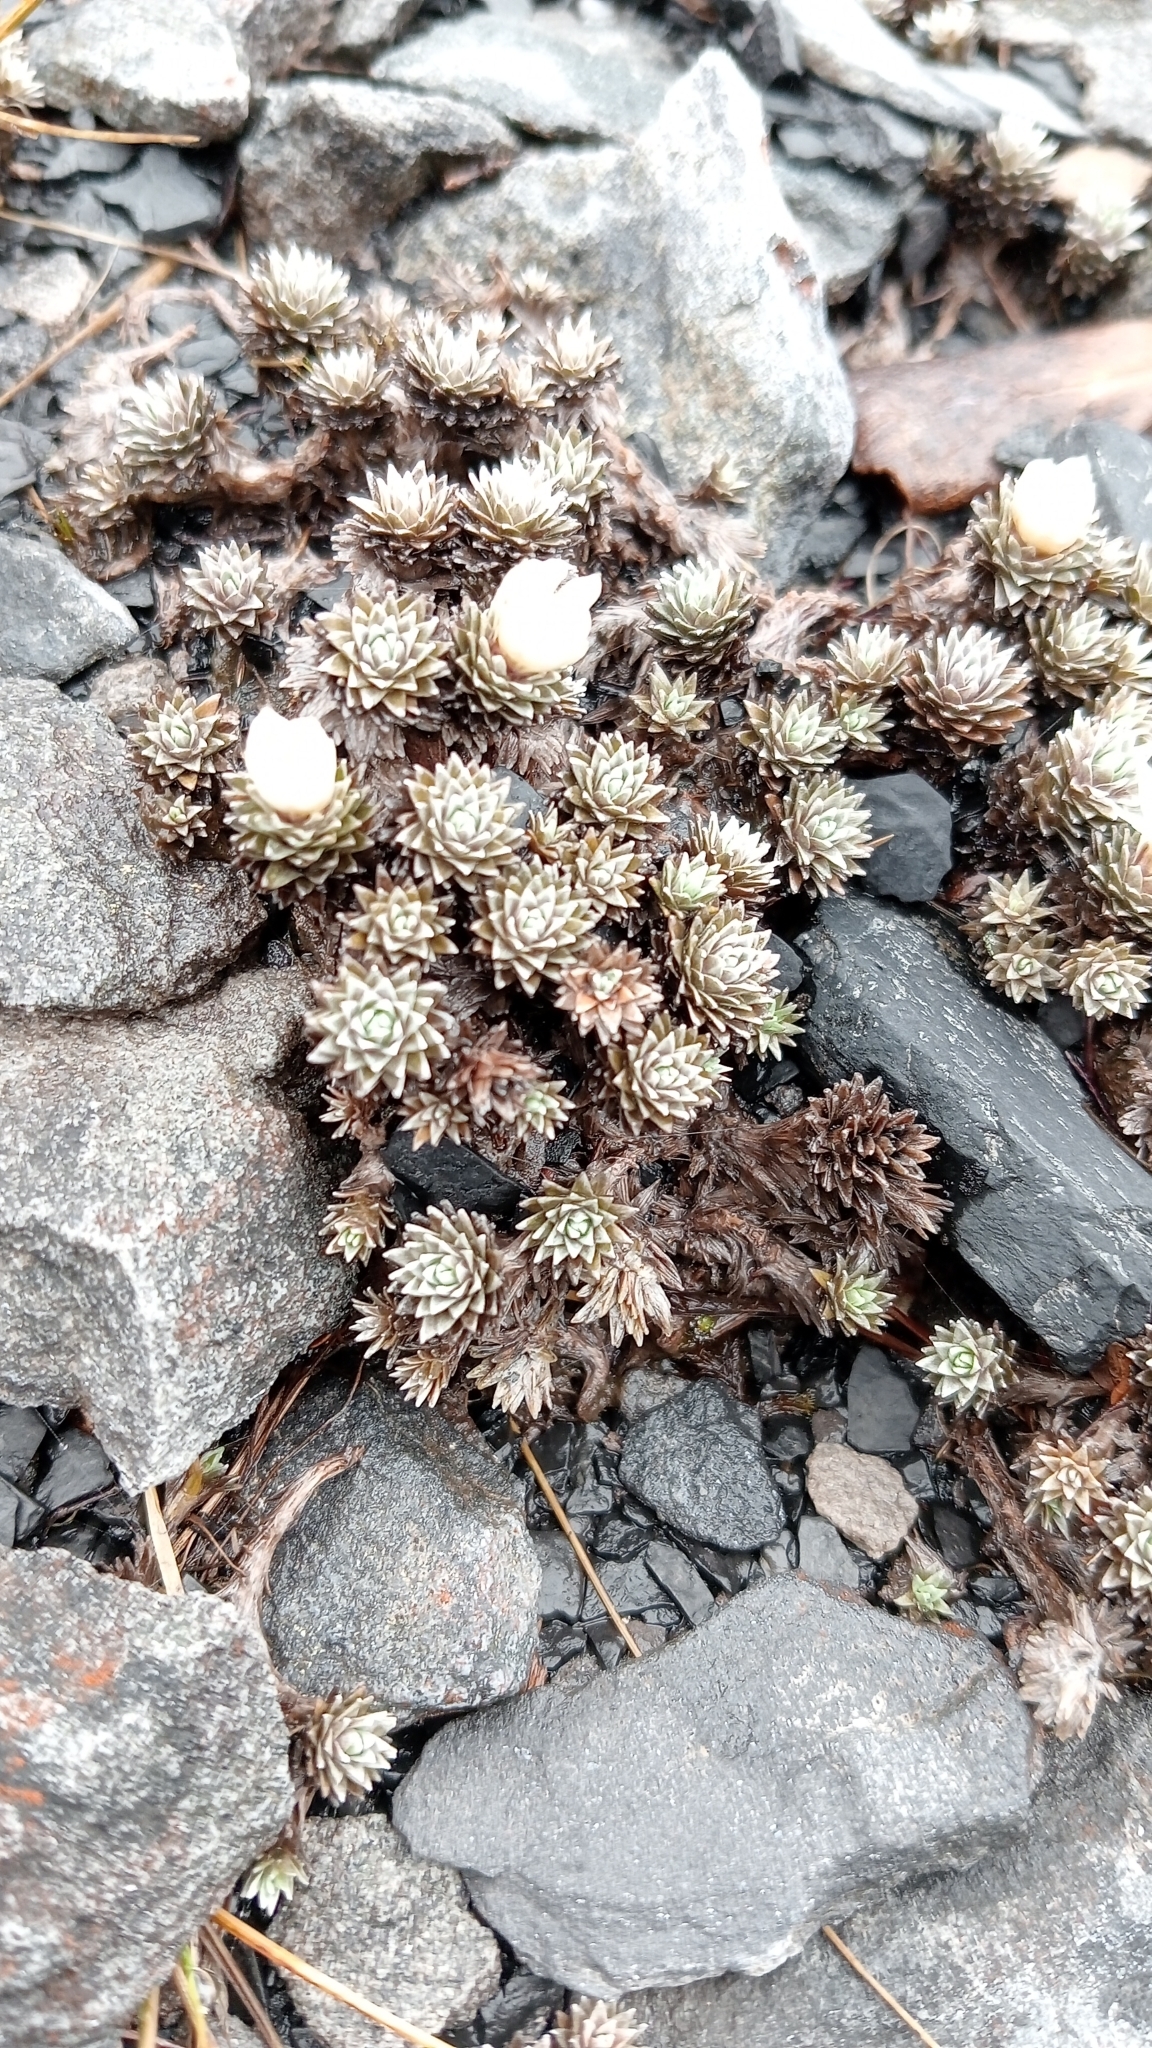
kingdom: Plantae
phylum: Tracheophyta
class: Magnoliopsida
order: Asterales
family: Asteraceae
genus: Raoulia
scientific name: Raoulia grandiflora
